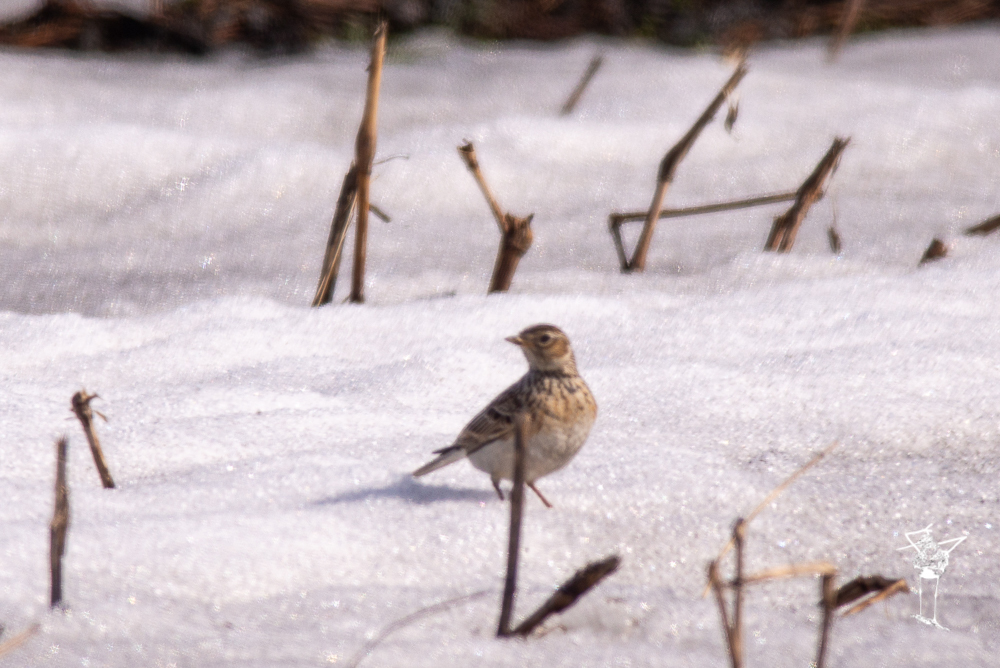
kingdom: Animalia
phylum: Chordata
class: Aves
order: Passeriformes
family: Alaudidae
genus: Alauda
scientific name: Alauda arvensis
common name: Eurasian skylark
